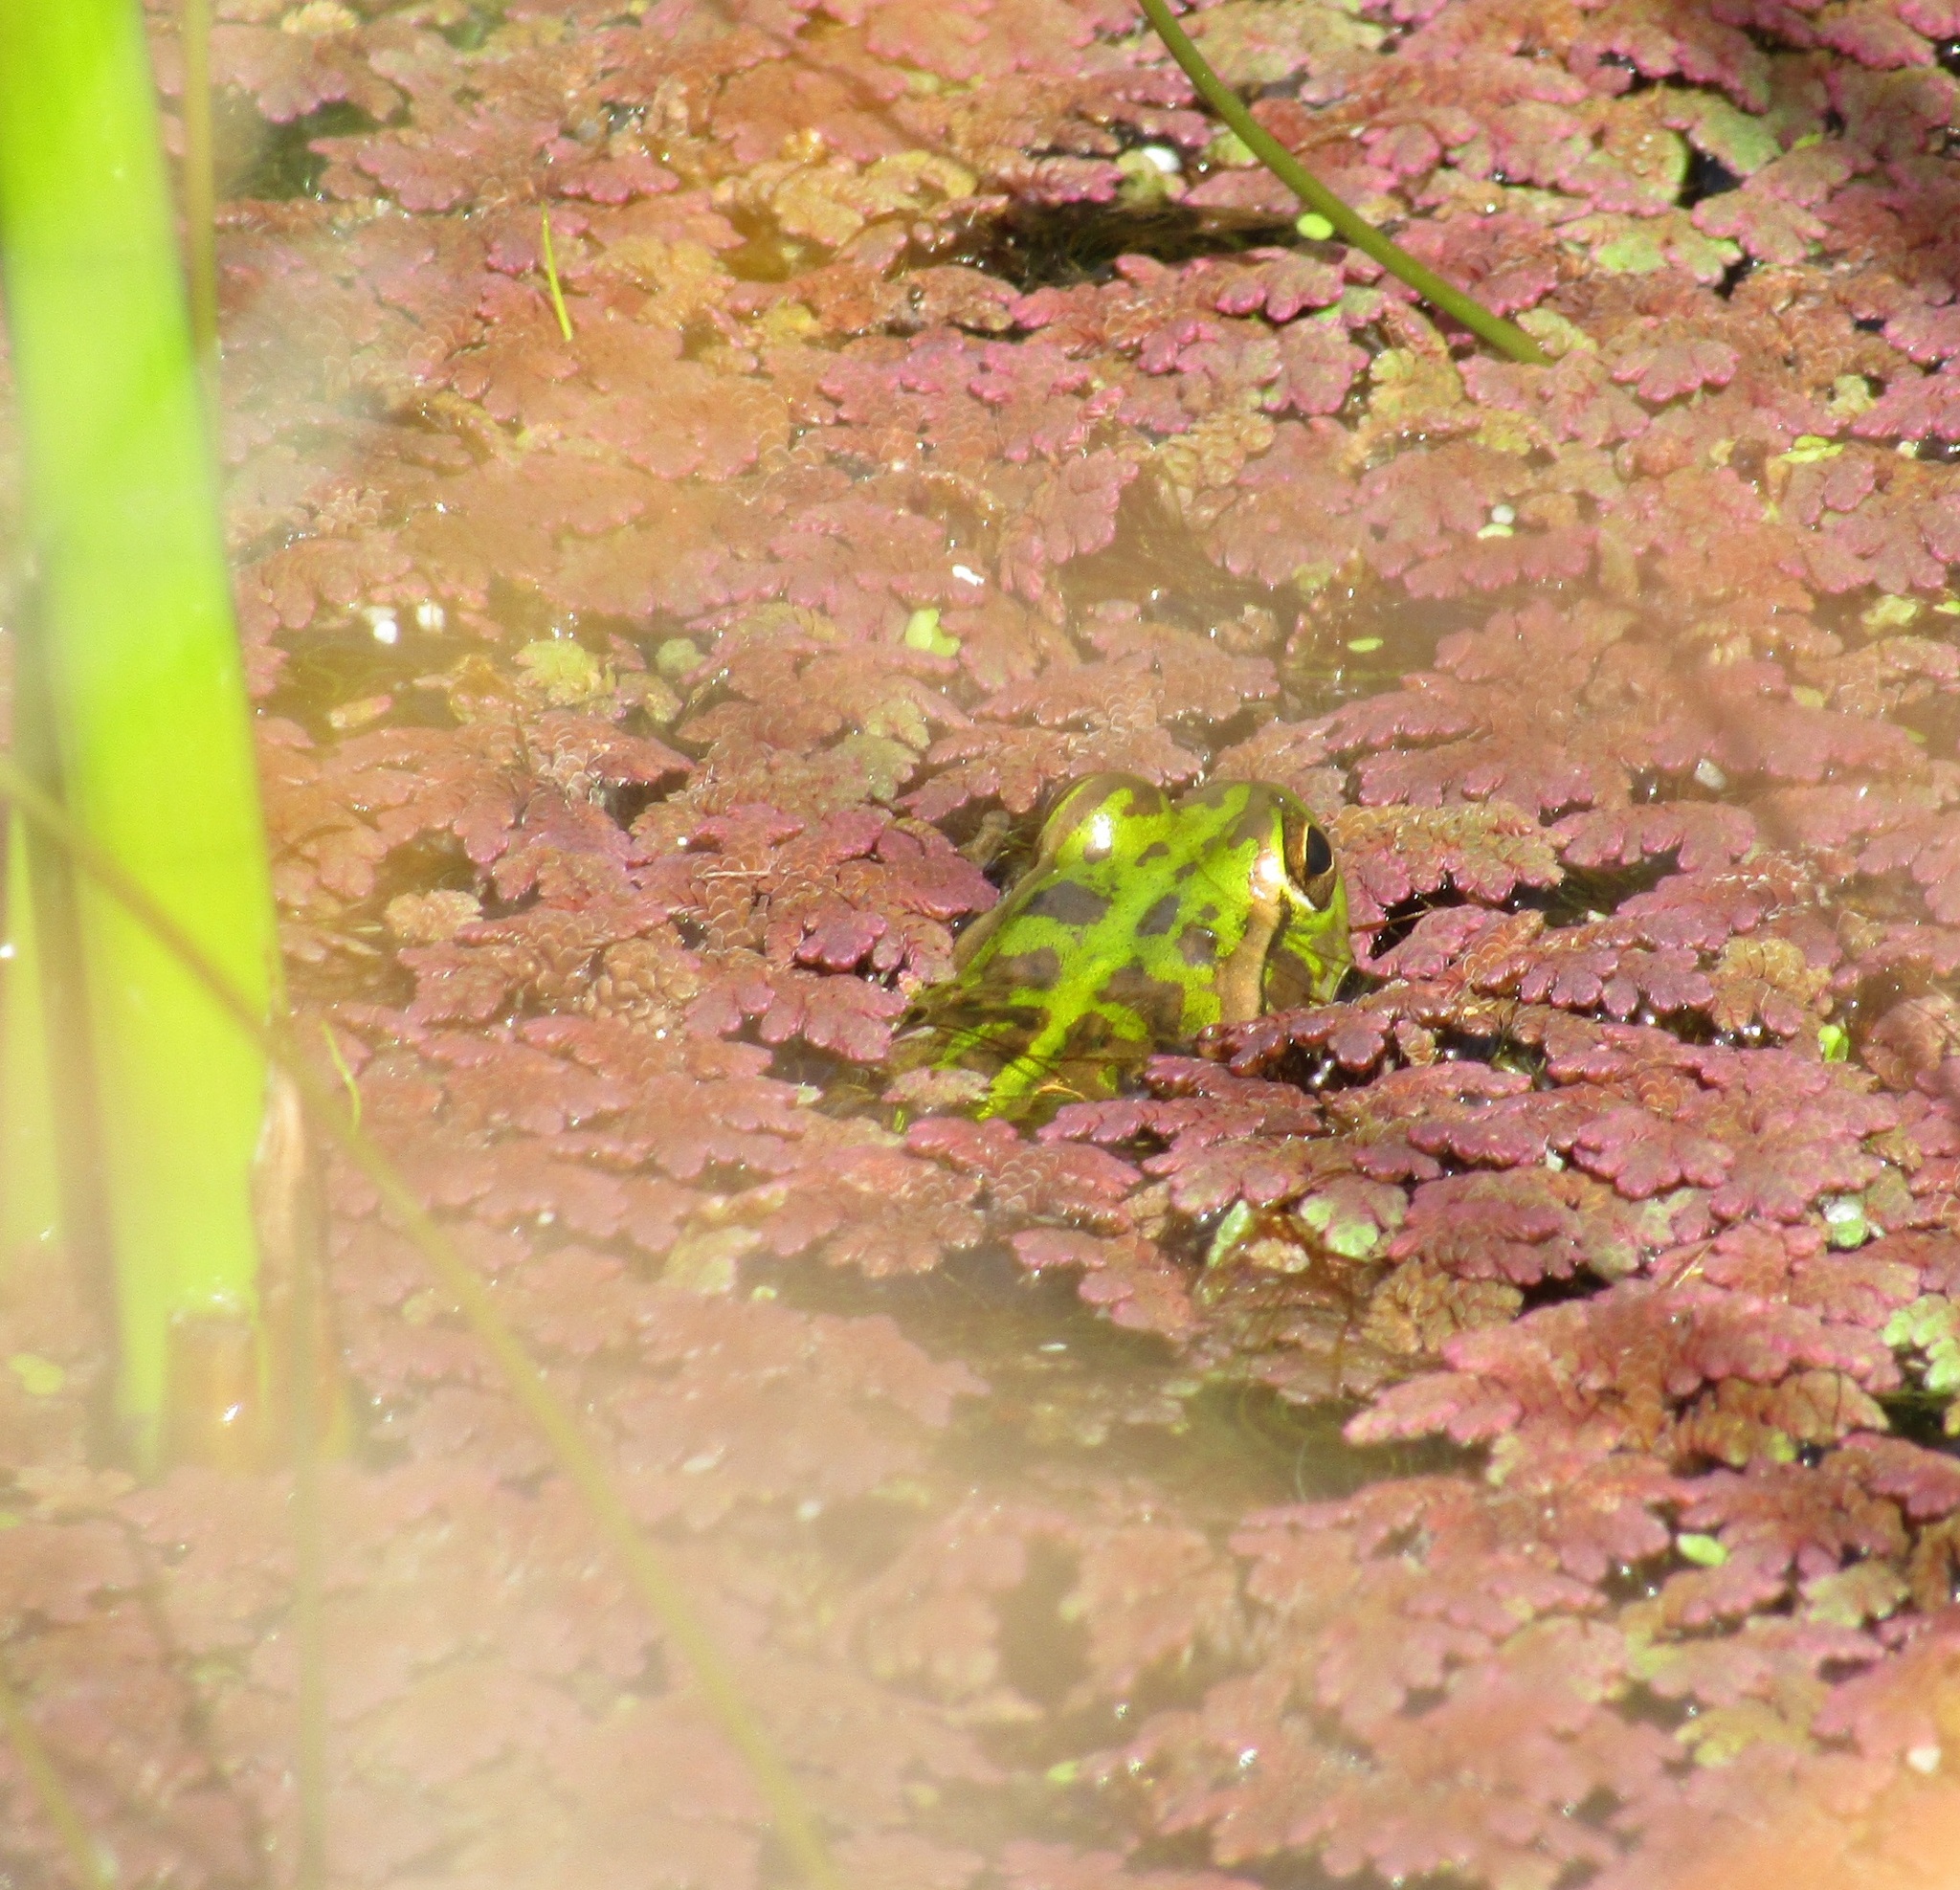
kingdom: Animalia
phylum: Chordata
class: Amphibia
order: Anura
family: Pelodryadidae
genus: Ranoidea
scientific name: Ranoidea raniformis
